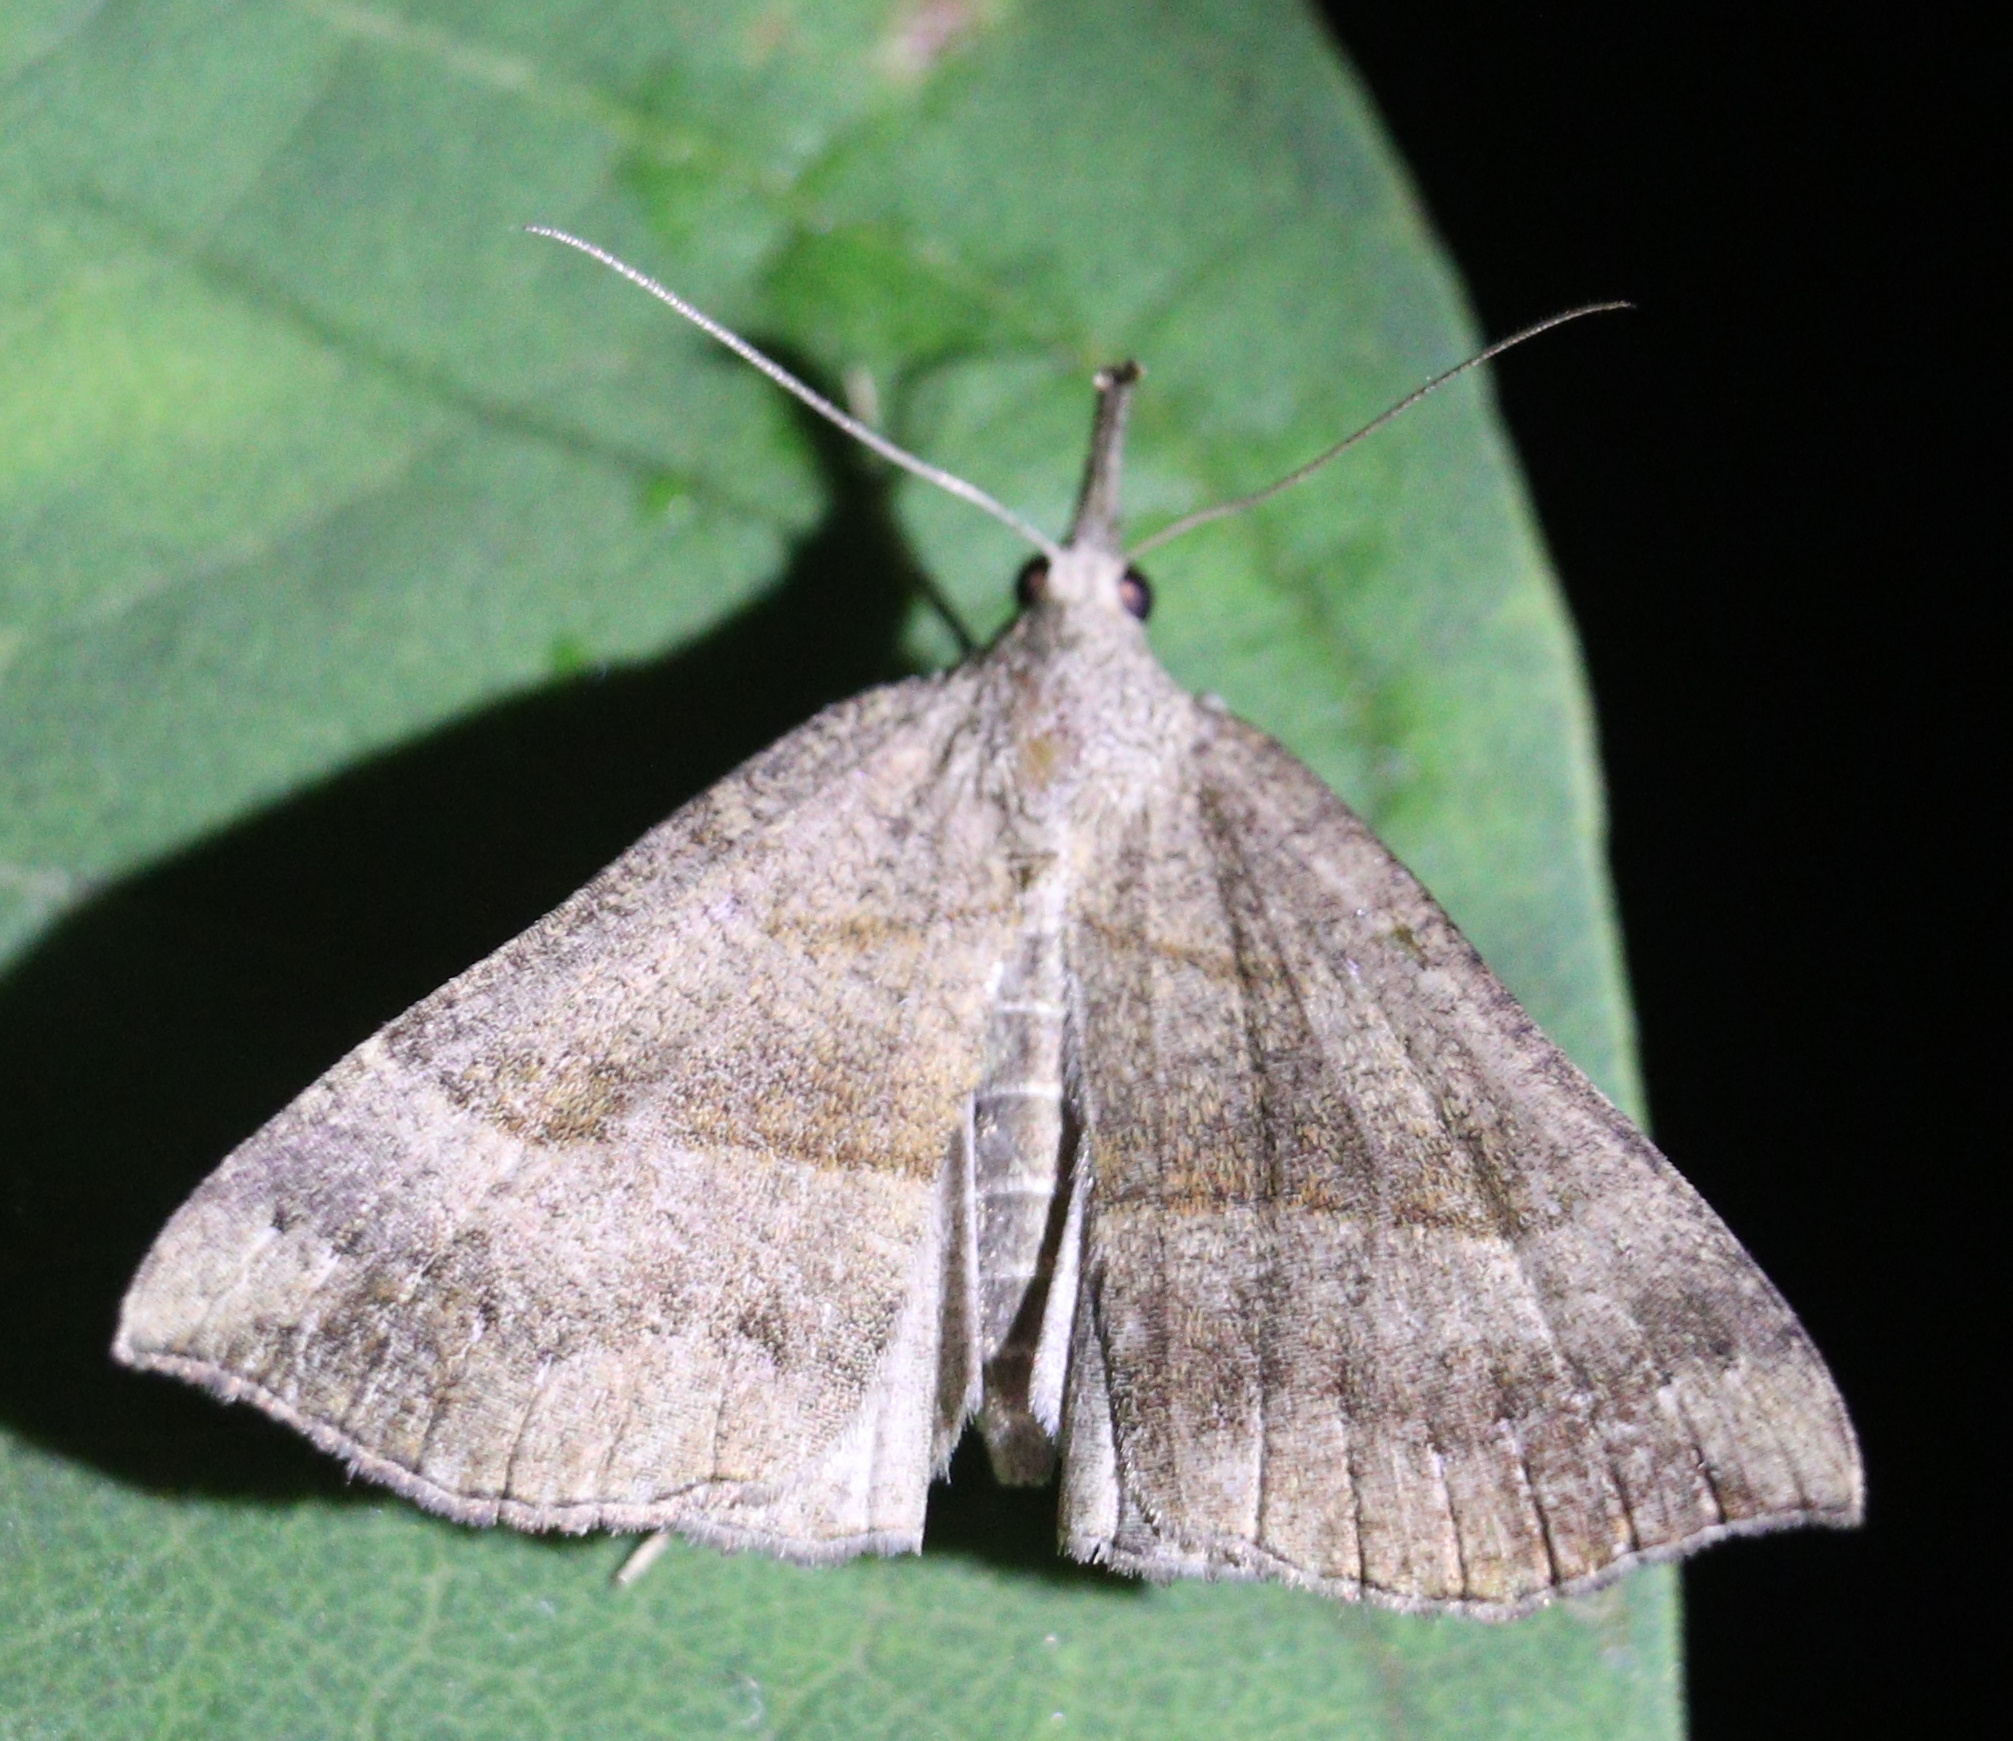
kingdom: Animalia
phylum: Arthropoda
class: Insecta
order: Lepidoptera
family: Erebidae
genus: Hypena
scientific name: Hypena proboscidalis
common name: Snout
